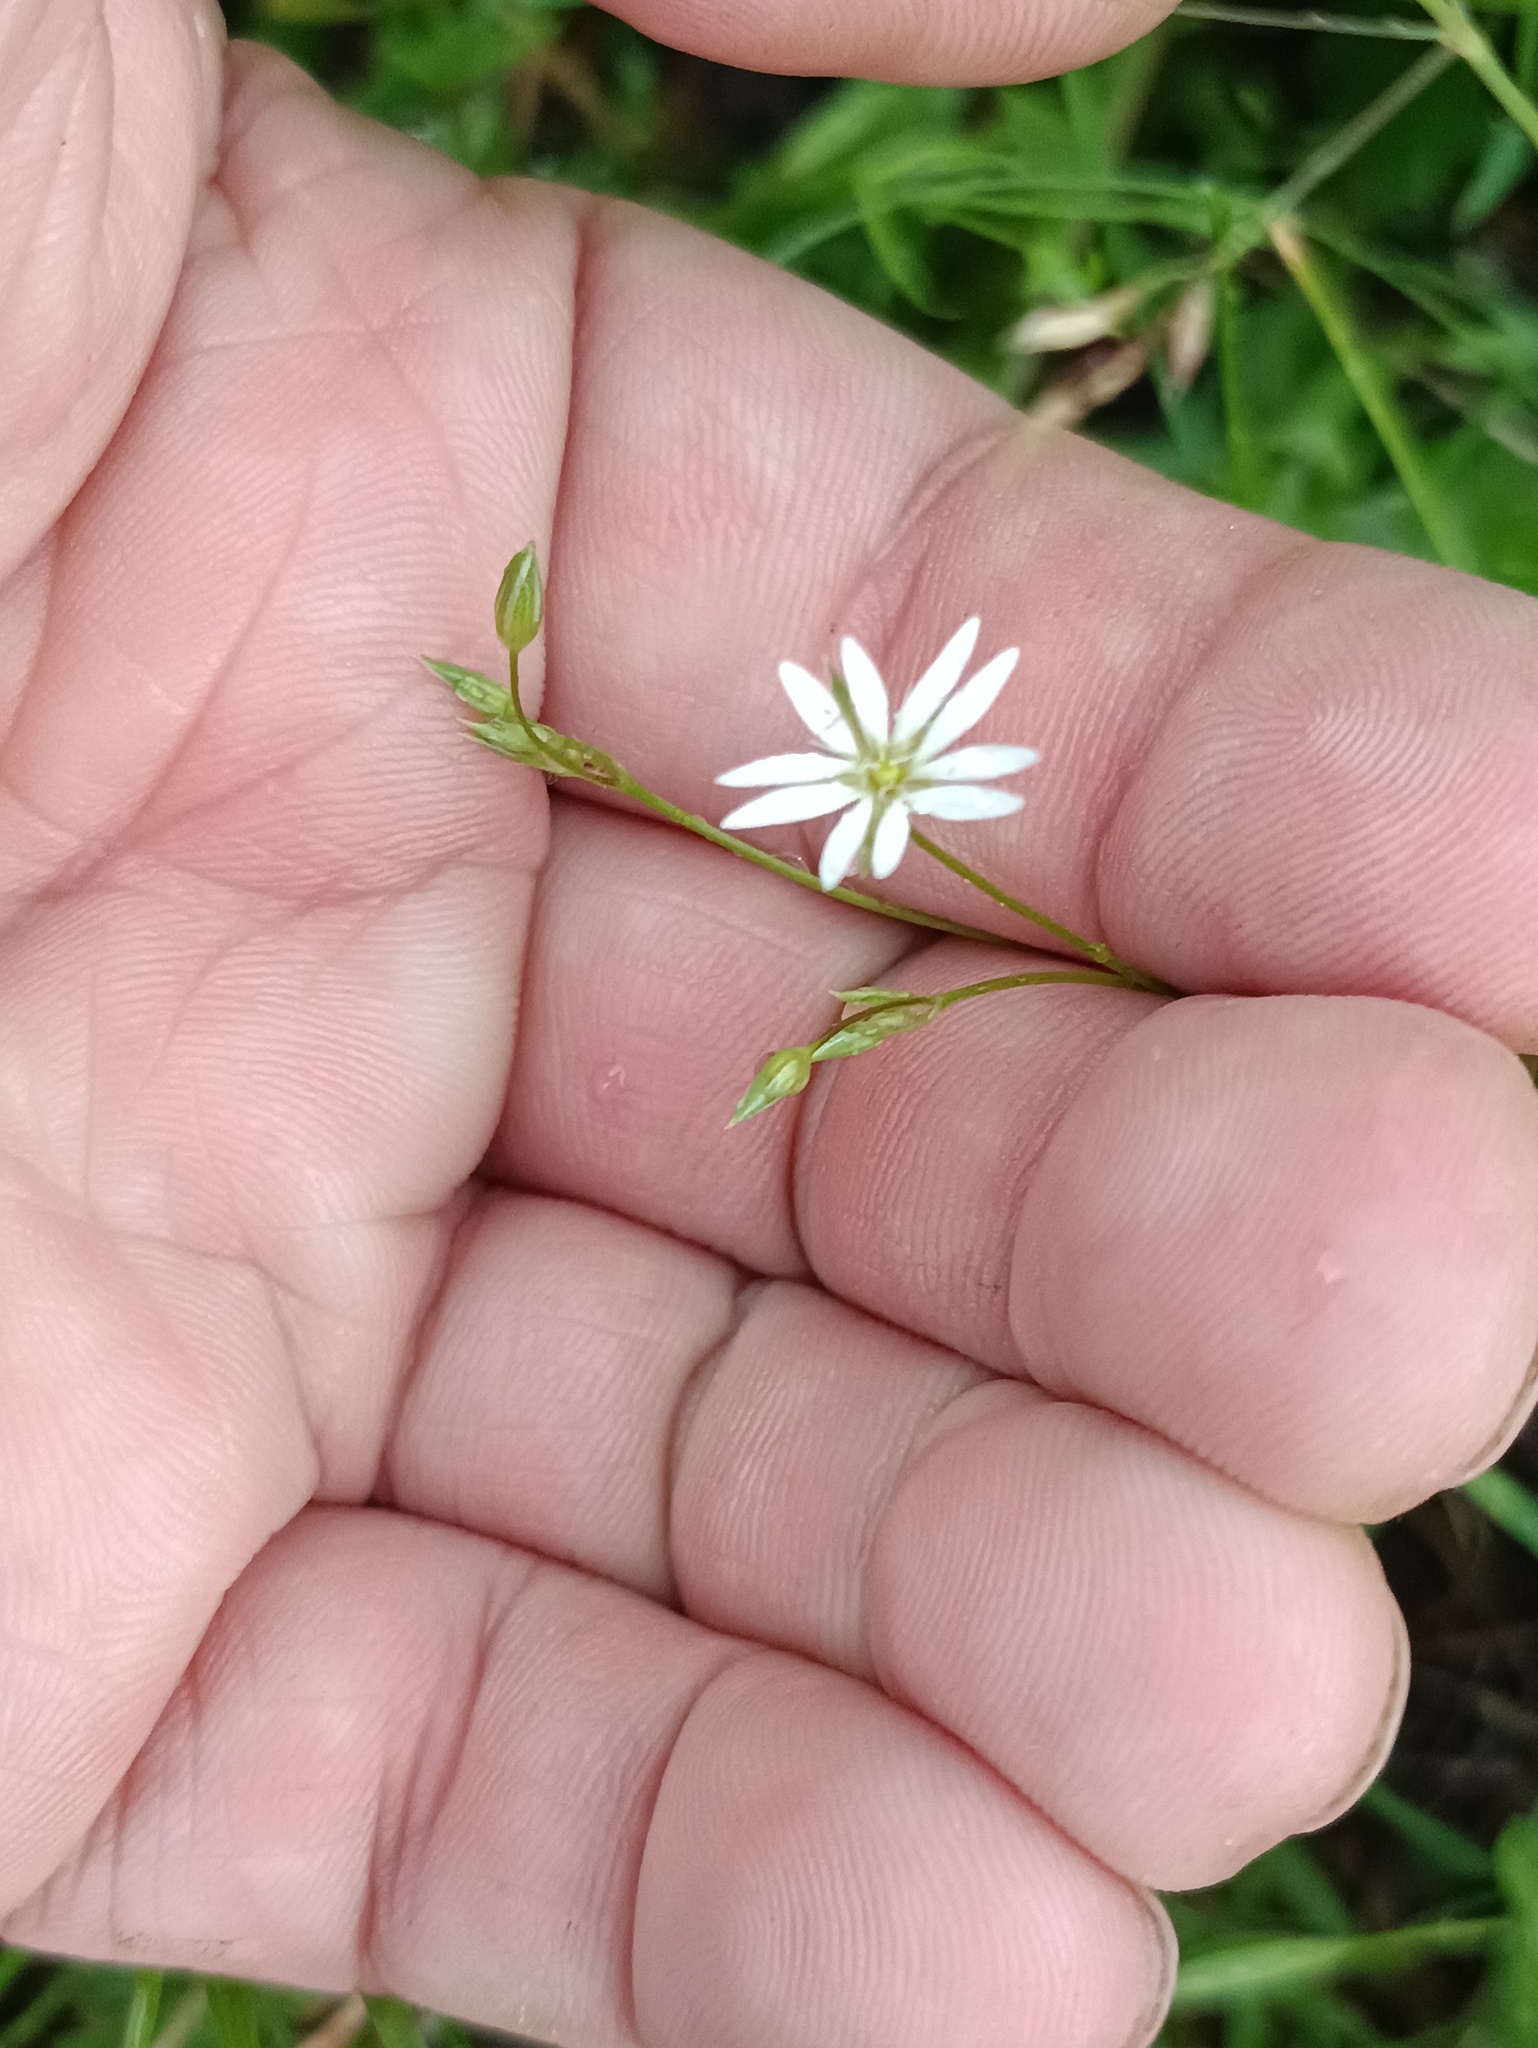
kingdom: Plantae
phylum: Tracheophyta
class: Magnoliopsida
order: Caryophyllales
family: Caryophyllaceae
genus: Stellaria
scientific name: Stellaria graminea
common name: Grass-like starwort
